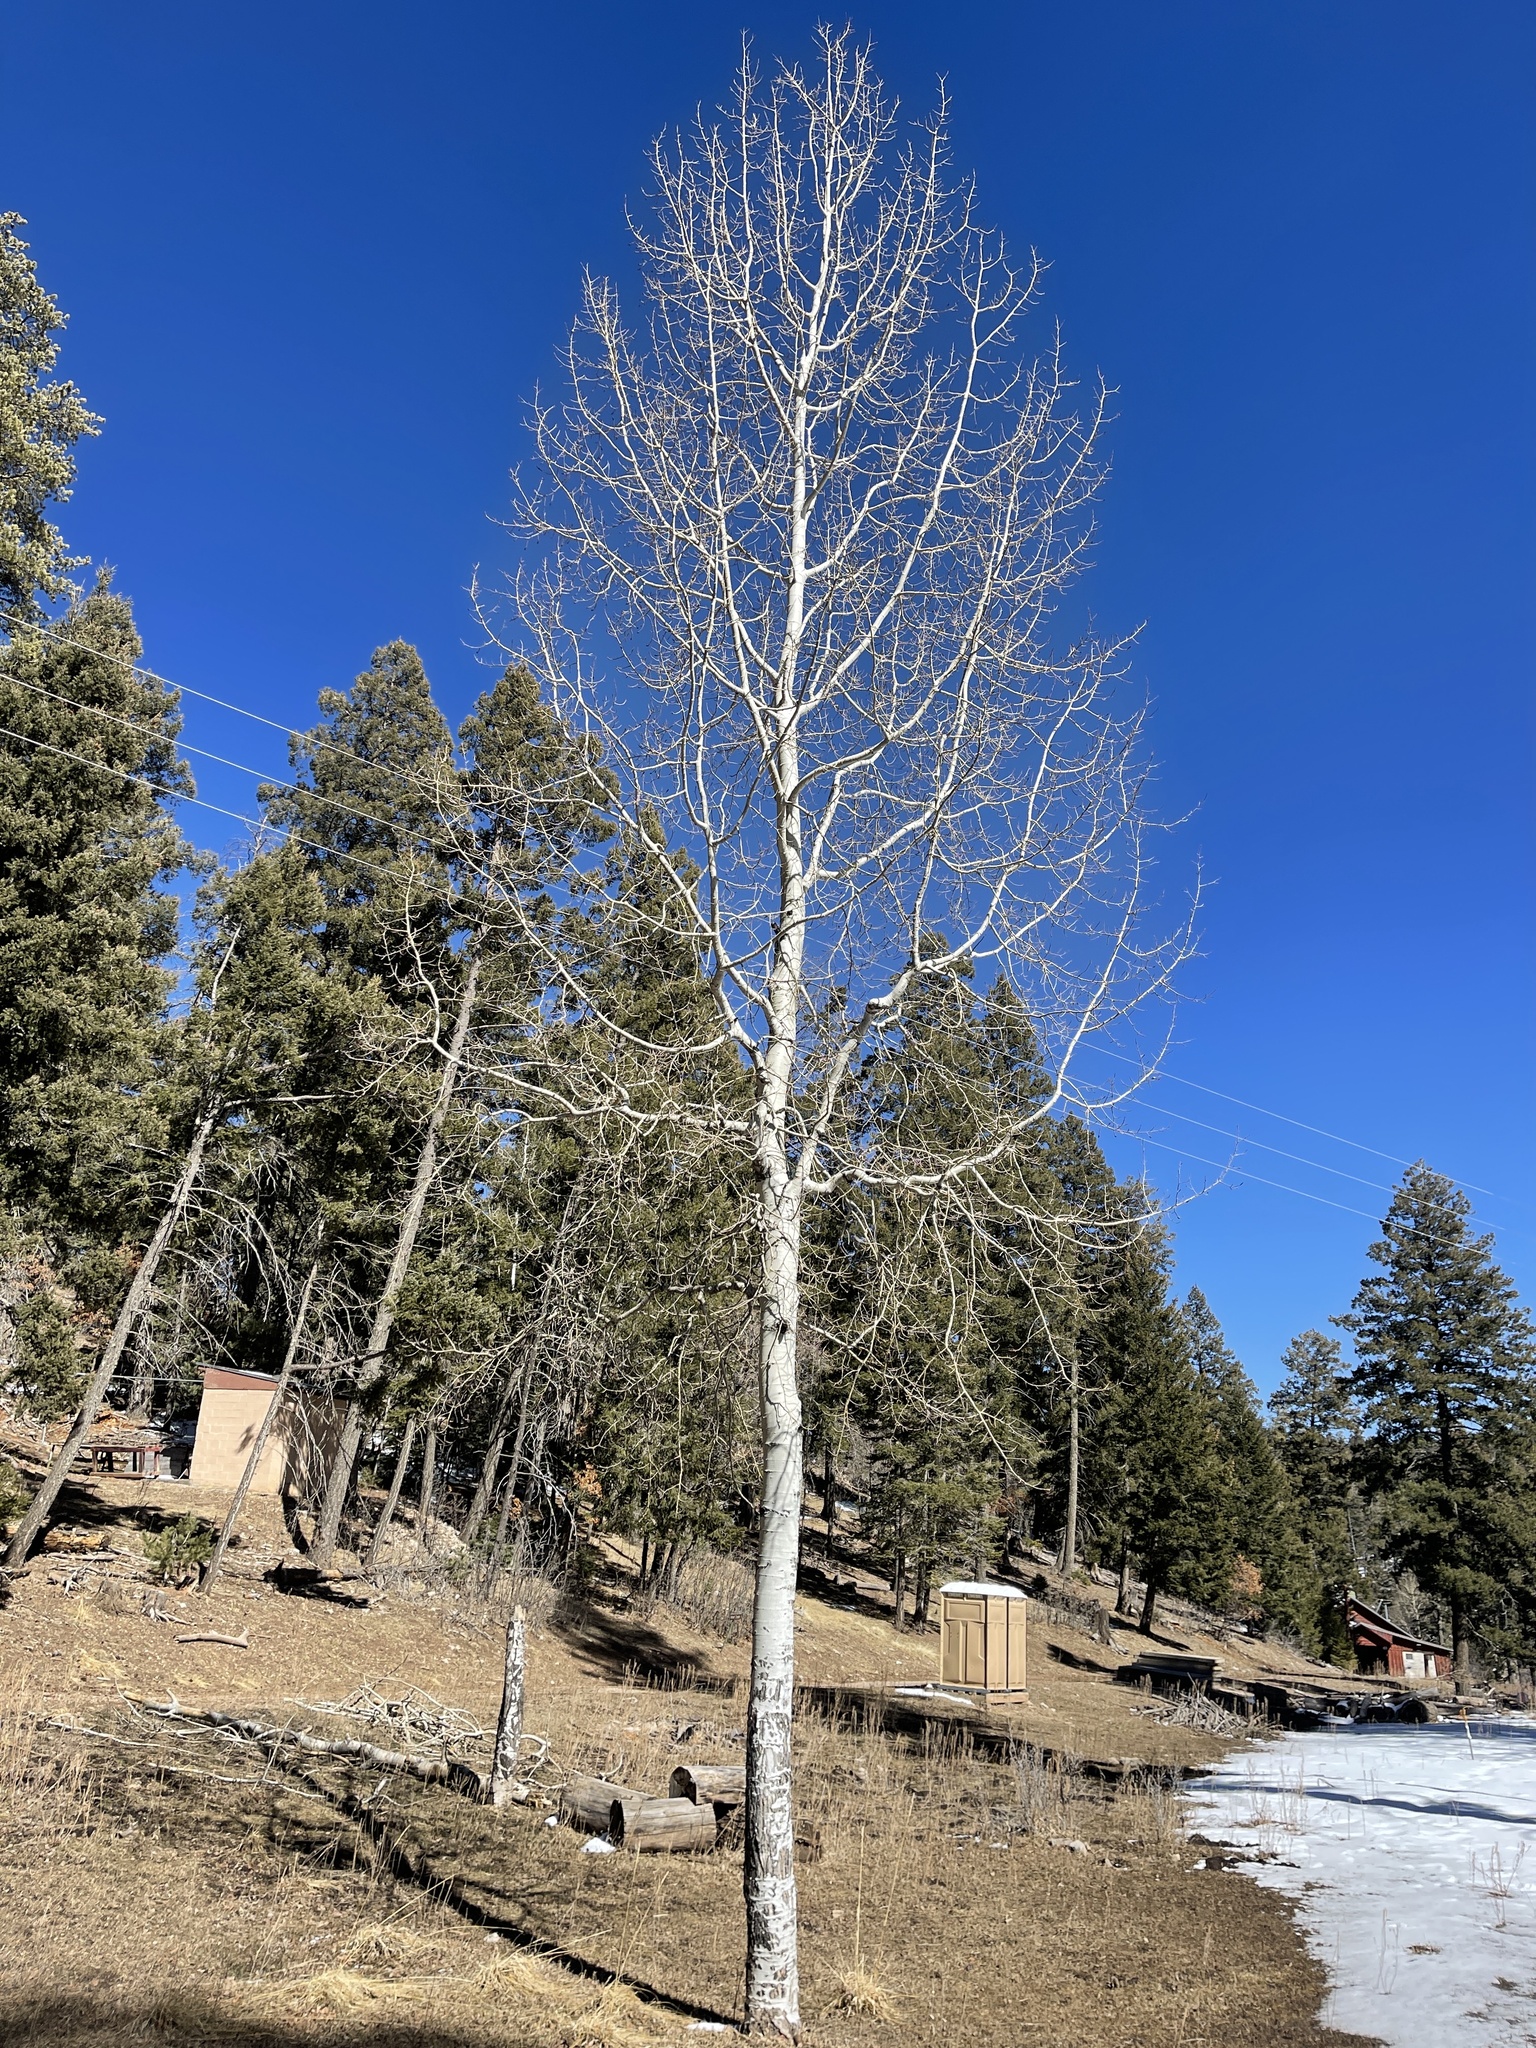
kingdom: Plantae
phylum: Tracheophyta
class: Magnoliopsida
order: Malpighiales
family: Salicaceae
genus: Populus
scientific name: Populus tremuloides
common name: Quaking aspen
